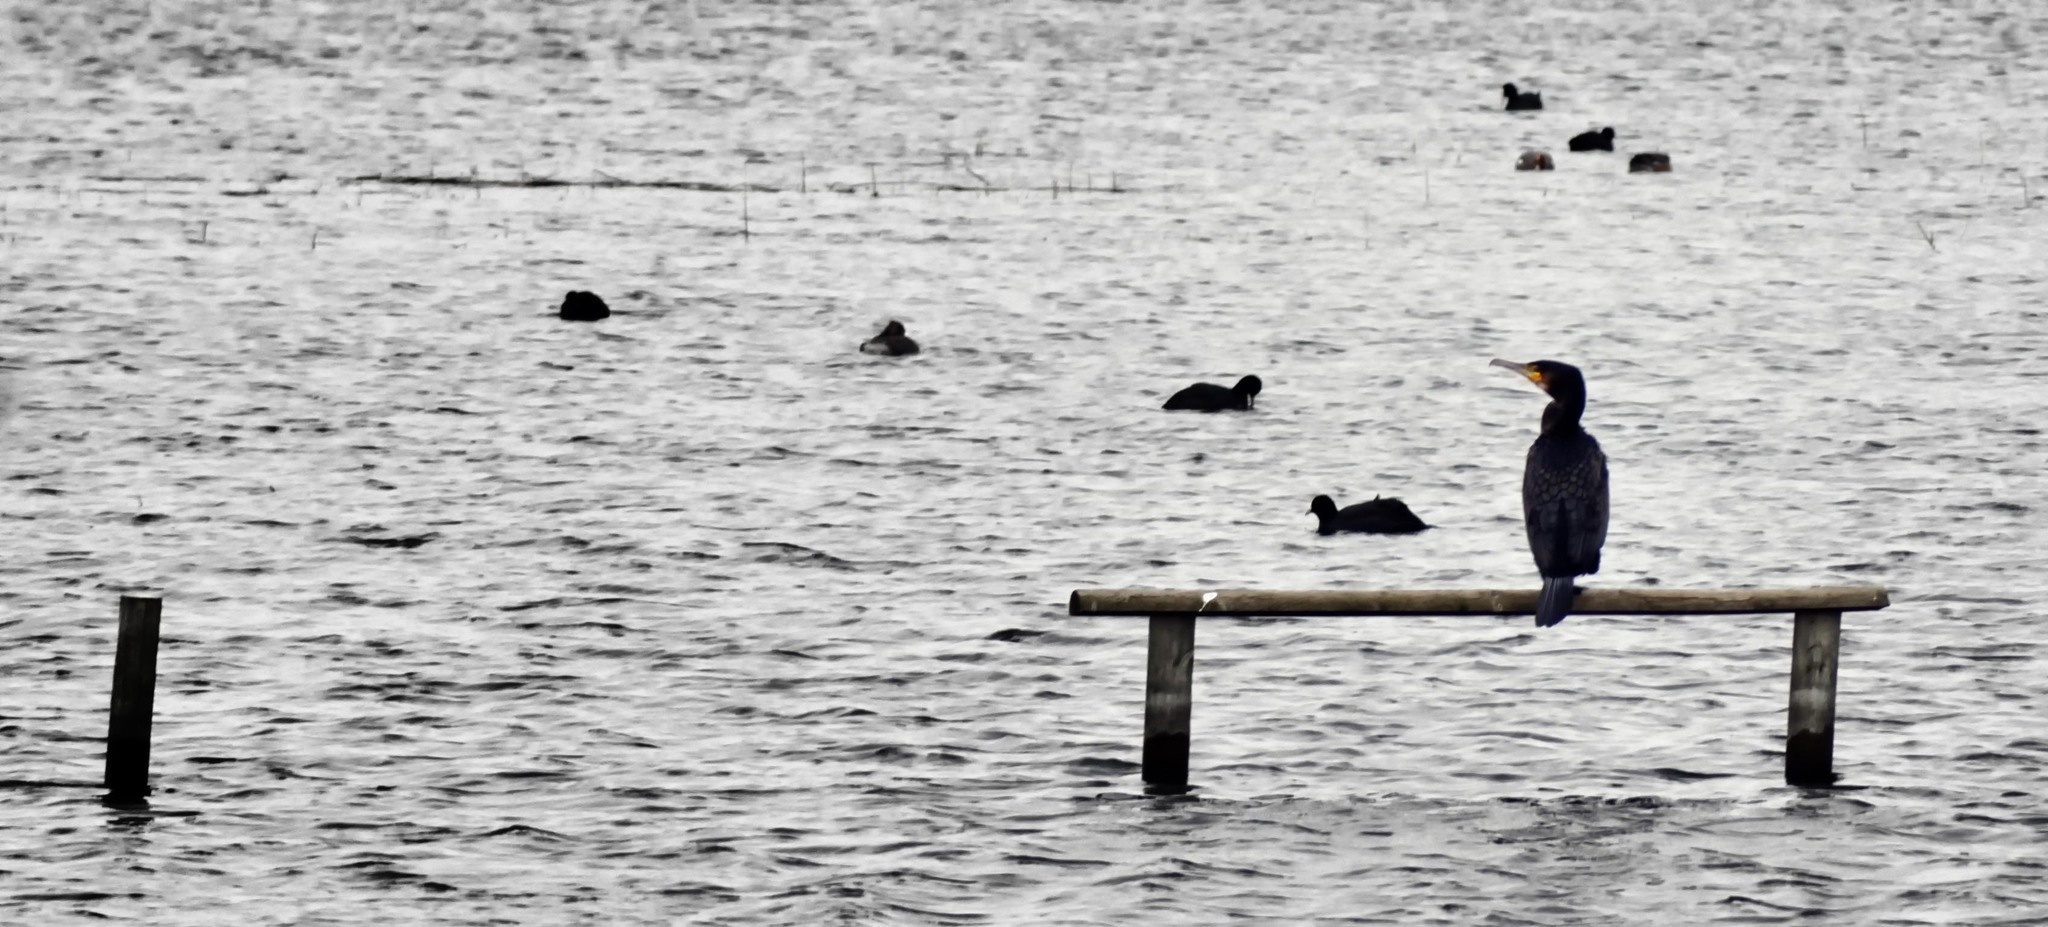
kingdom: Animalia
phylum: Chordata
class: Aves
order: Suliformes
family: Phalacrocoracidae
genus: Phalacrocorax
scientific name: Phalacrocorax carbo
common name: Great cormorant
